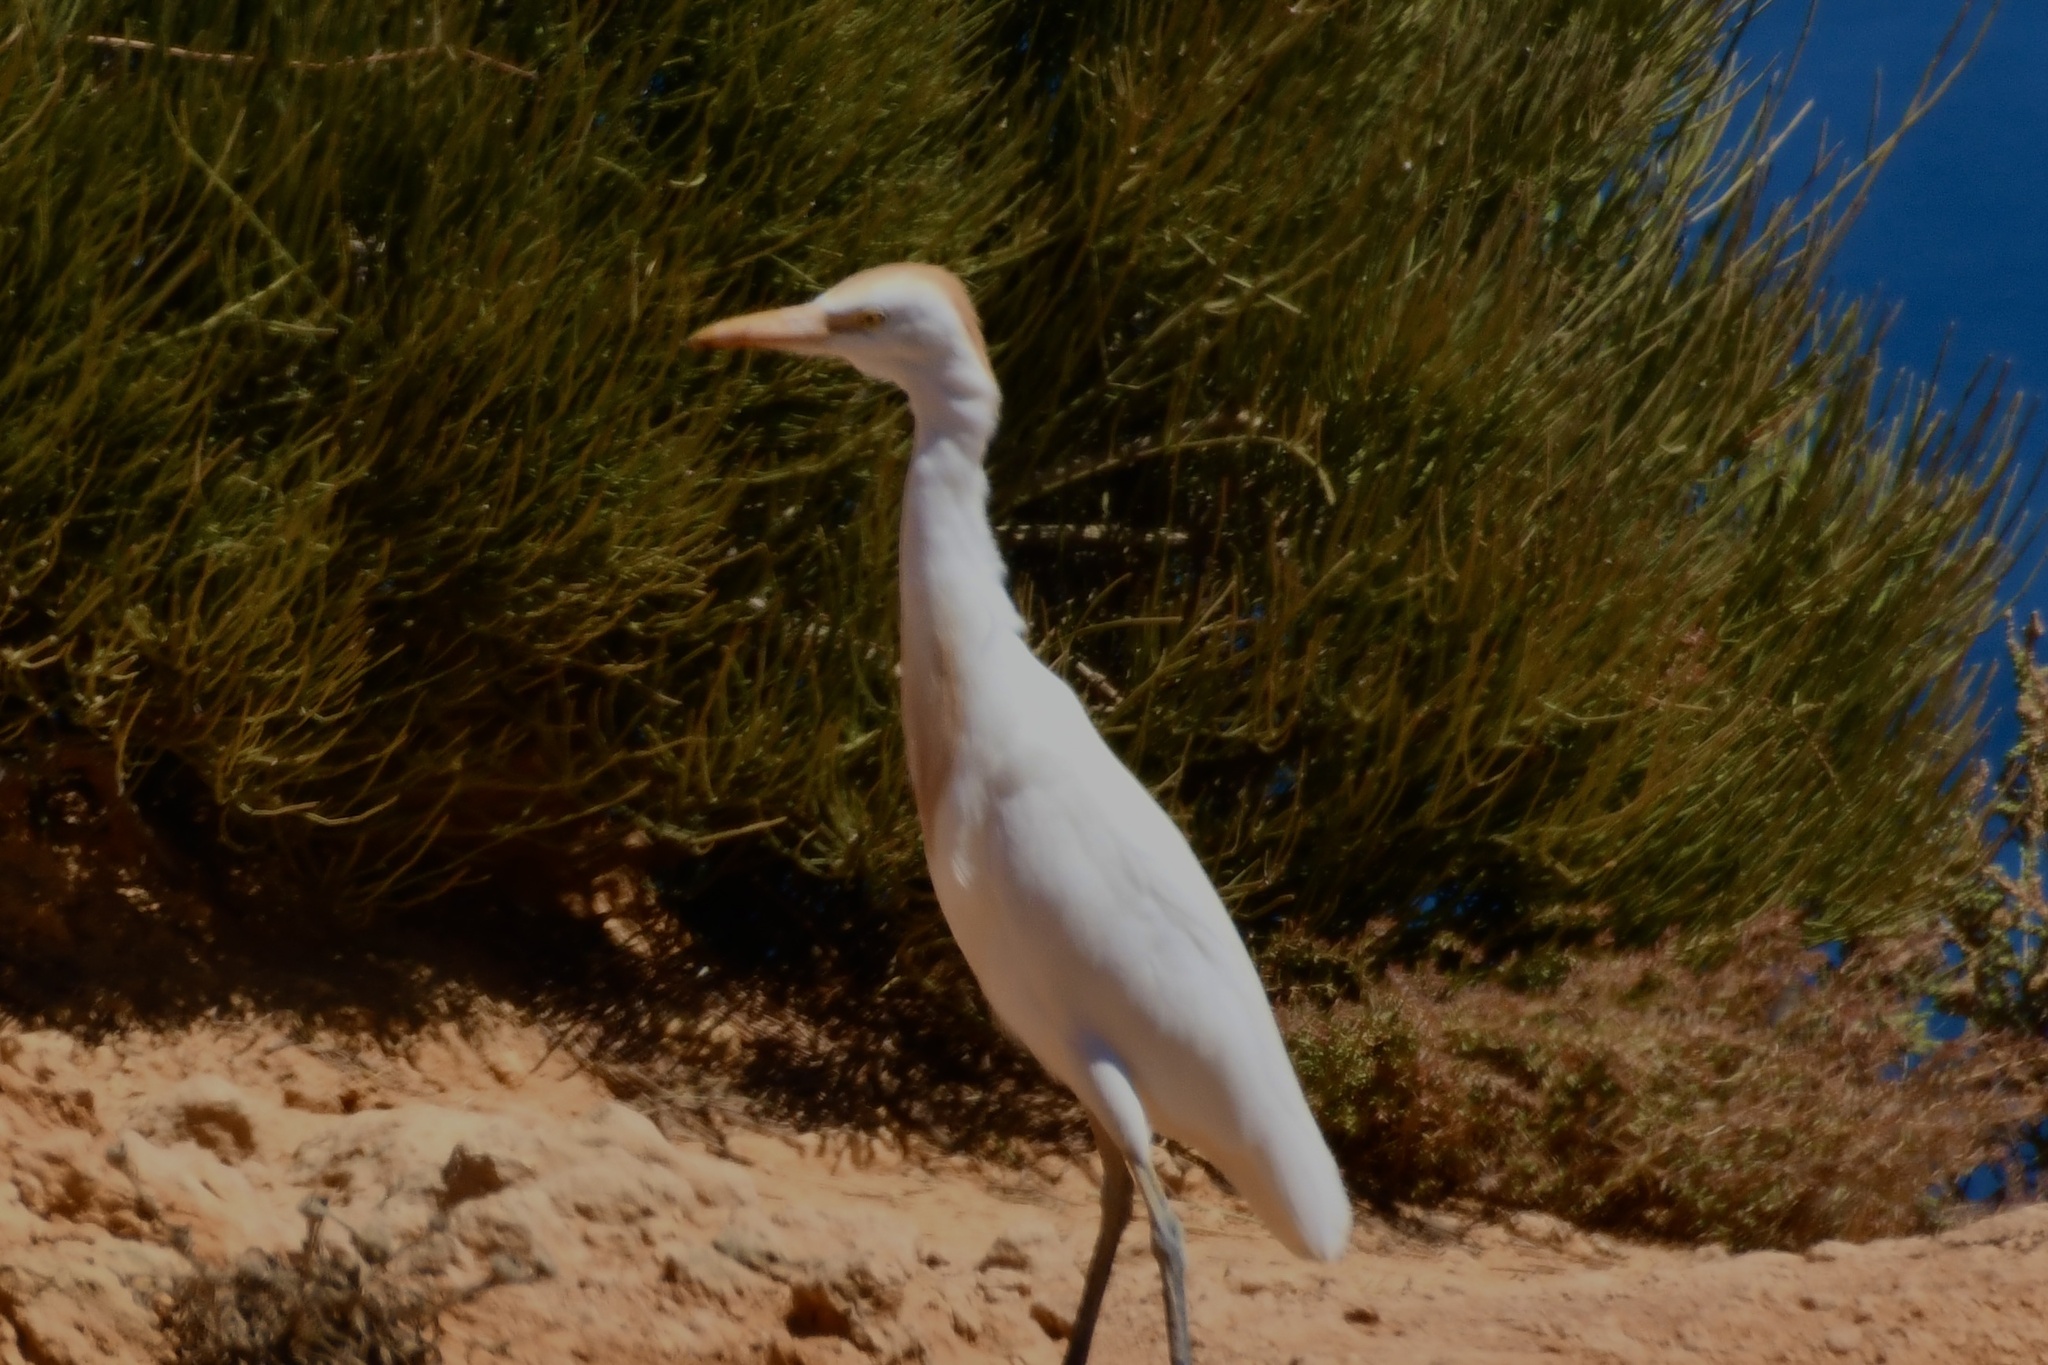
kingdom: Animalia
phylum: Chordata
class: Aves
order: Pelecaniformes
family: Ardeidae
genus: Bubulcus
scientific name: Bubulcus ibis
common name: Cattle egret
